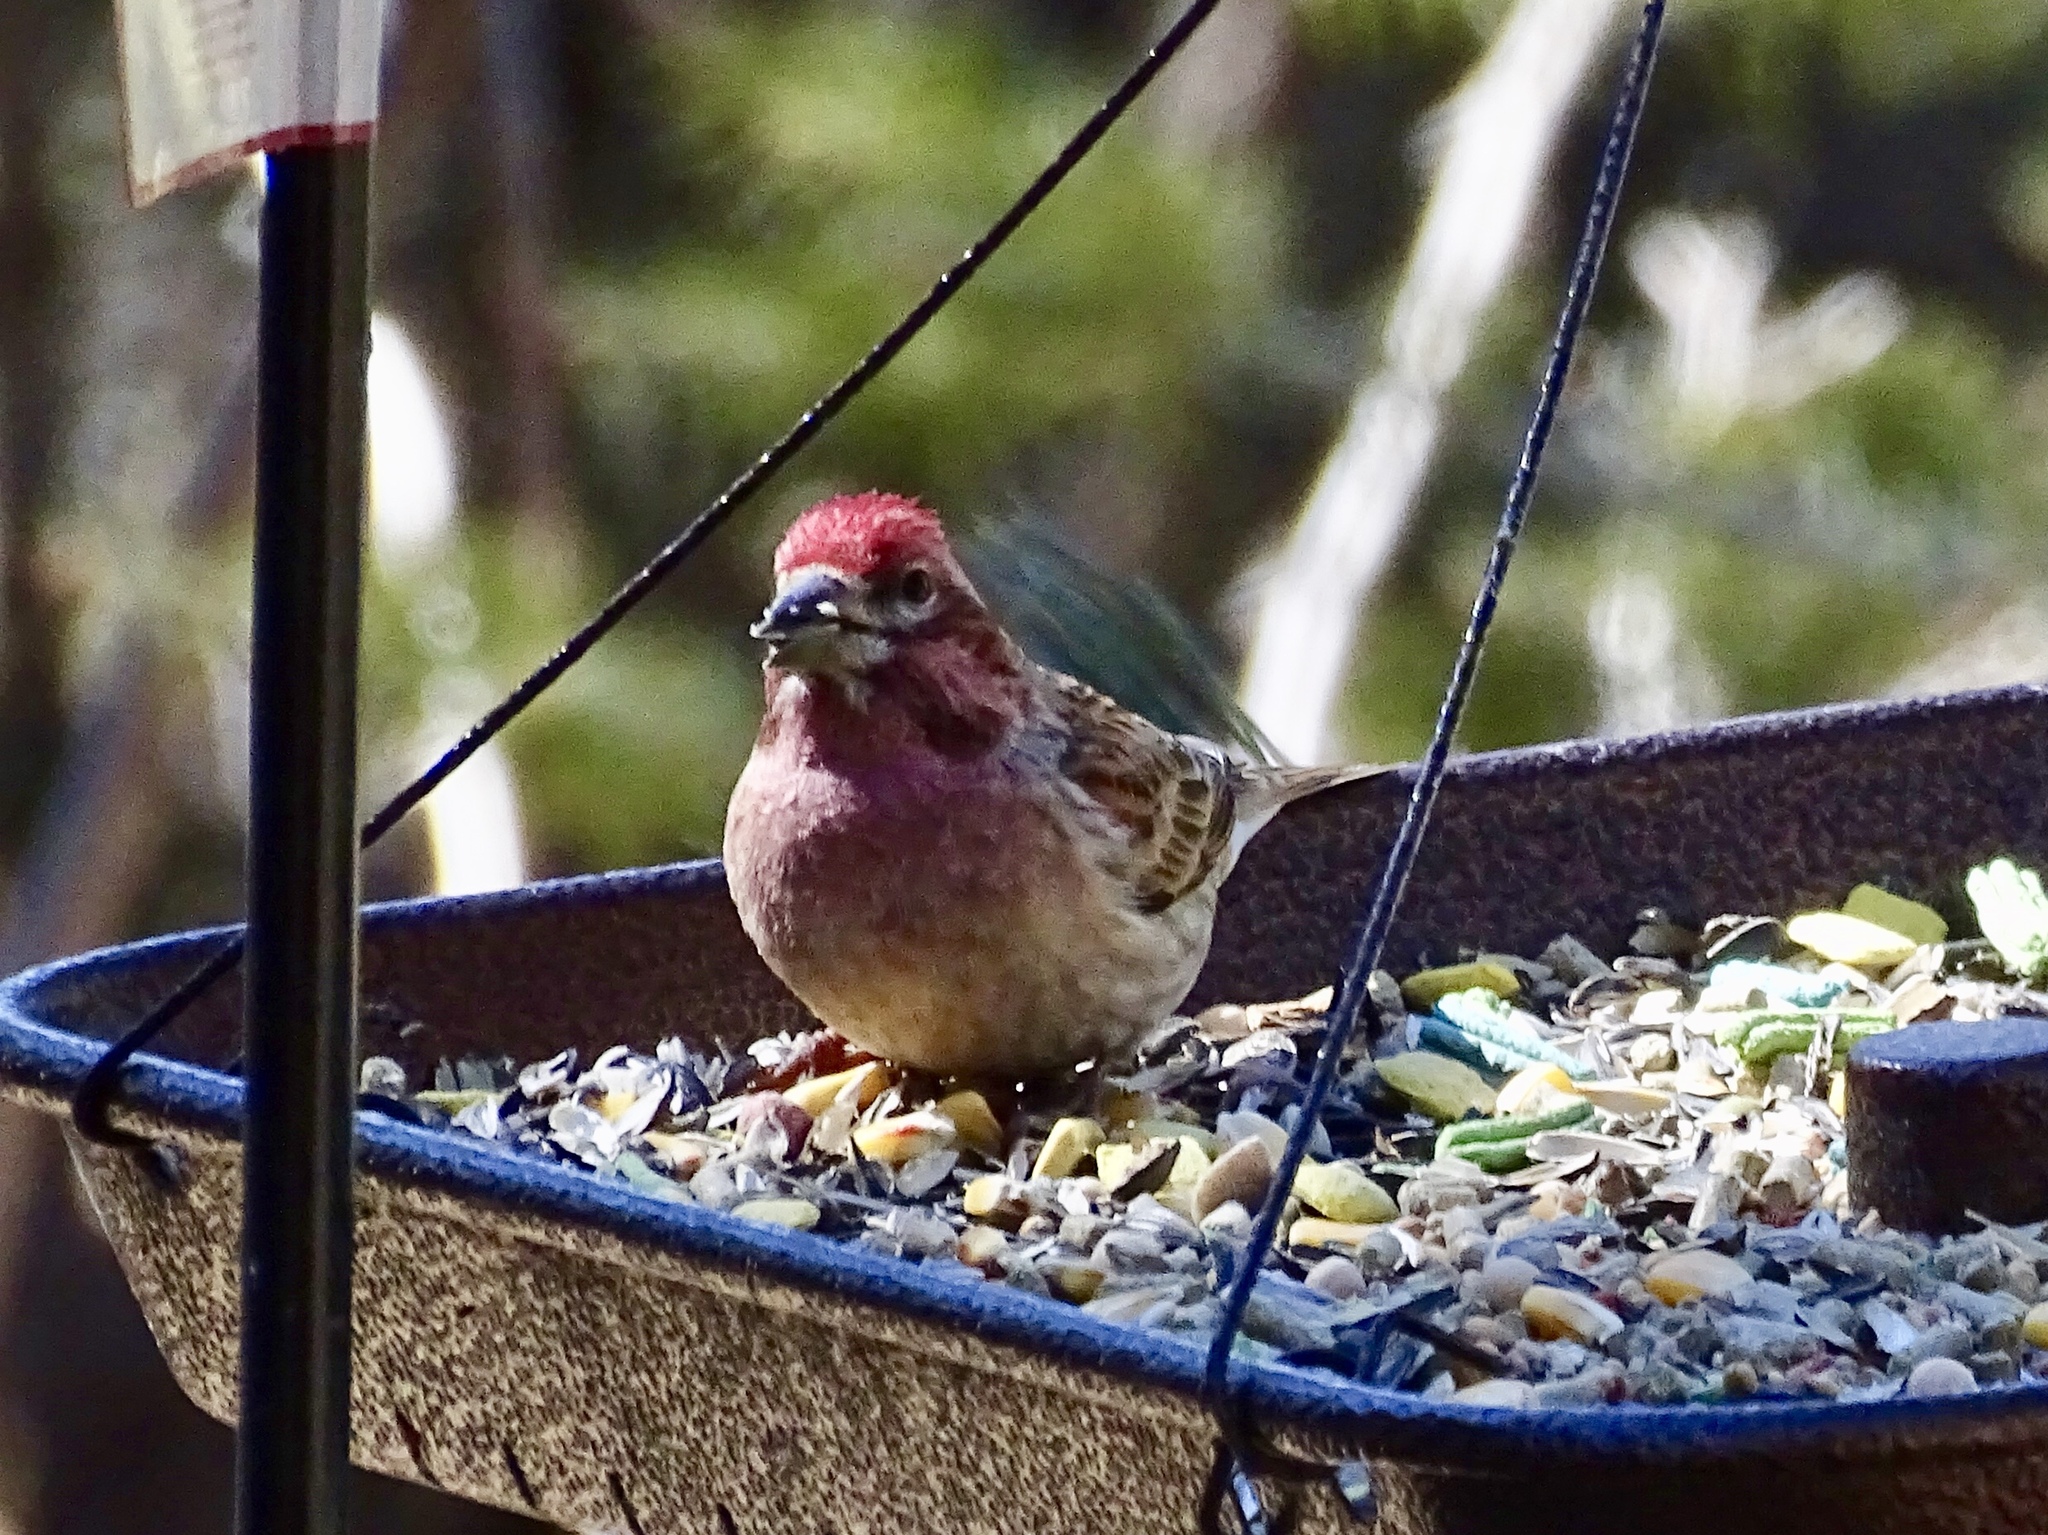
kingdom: Animalia
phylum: Chordata
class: Aves
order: Passeriformes
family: Fringillidae
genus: Haemorhous
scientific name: Haemorhous cassinii
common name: Cassin's finch
